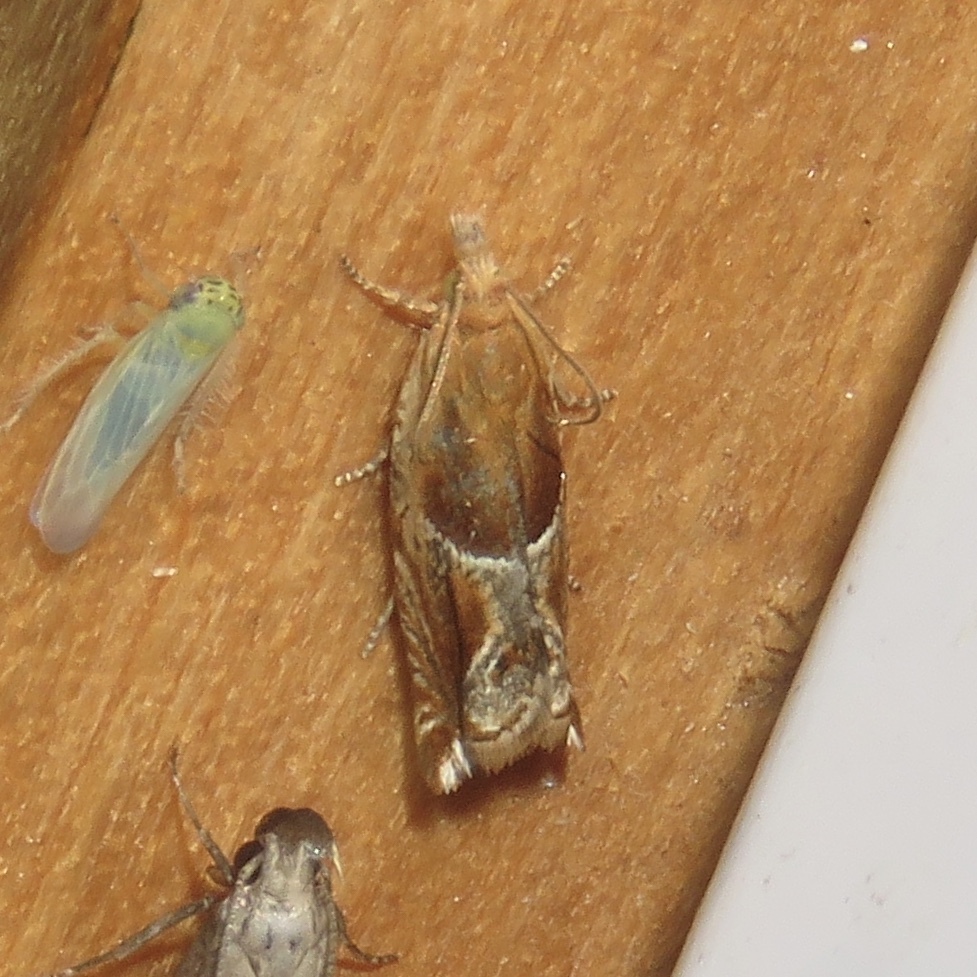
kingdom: Animalia
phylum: Arthropoda
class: Insecta
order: Lepidoptera
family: Tortricidae
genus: Ancylis
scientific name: Ancylis comptana
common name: Little roller
